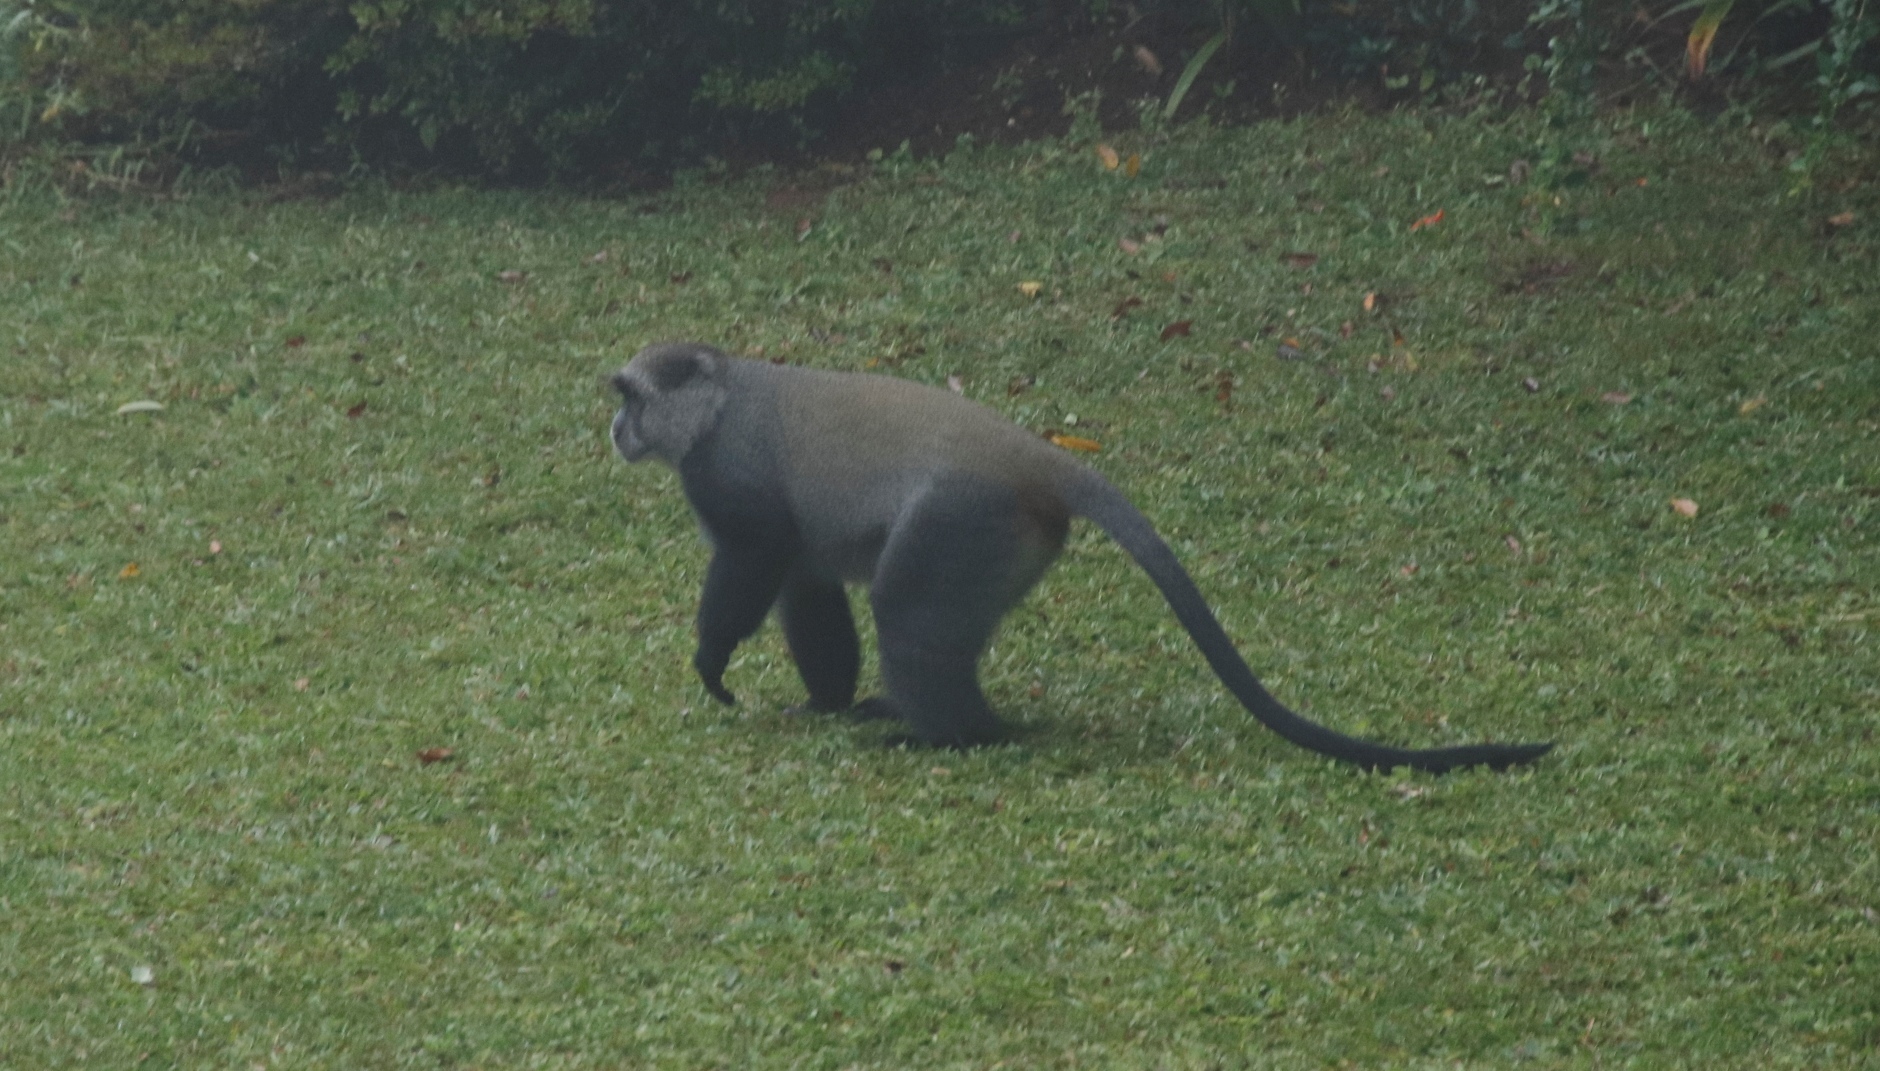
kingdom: Animalia
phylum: Chordata
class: Mammalia
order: Primates
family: Cercopithecidae
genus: Cercopithecus
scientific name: Cercopithecus mitis
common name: Blue monkey
